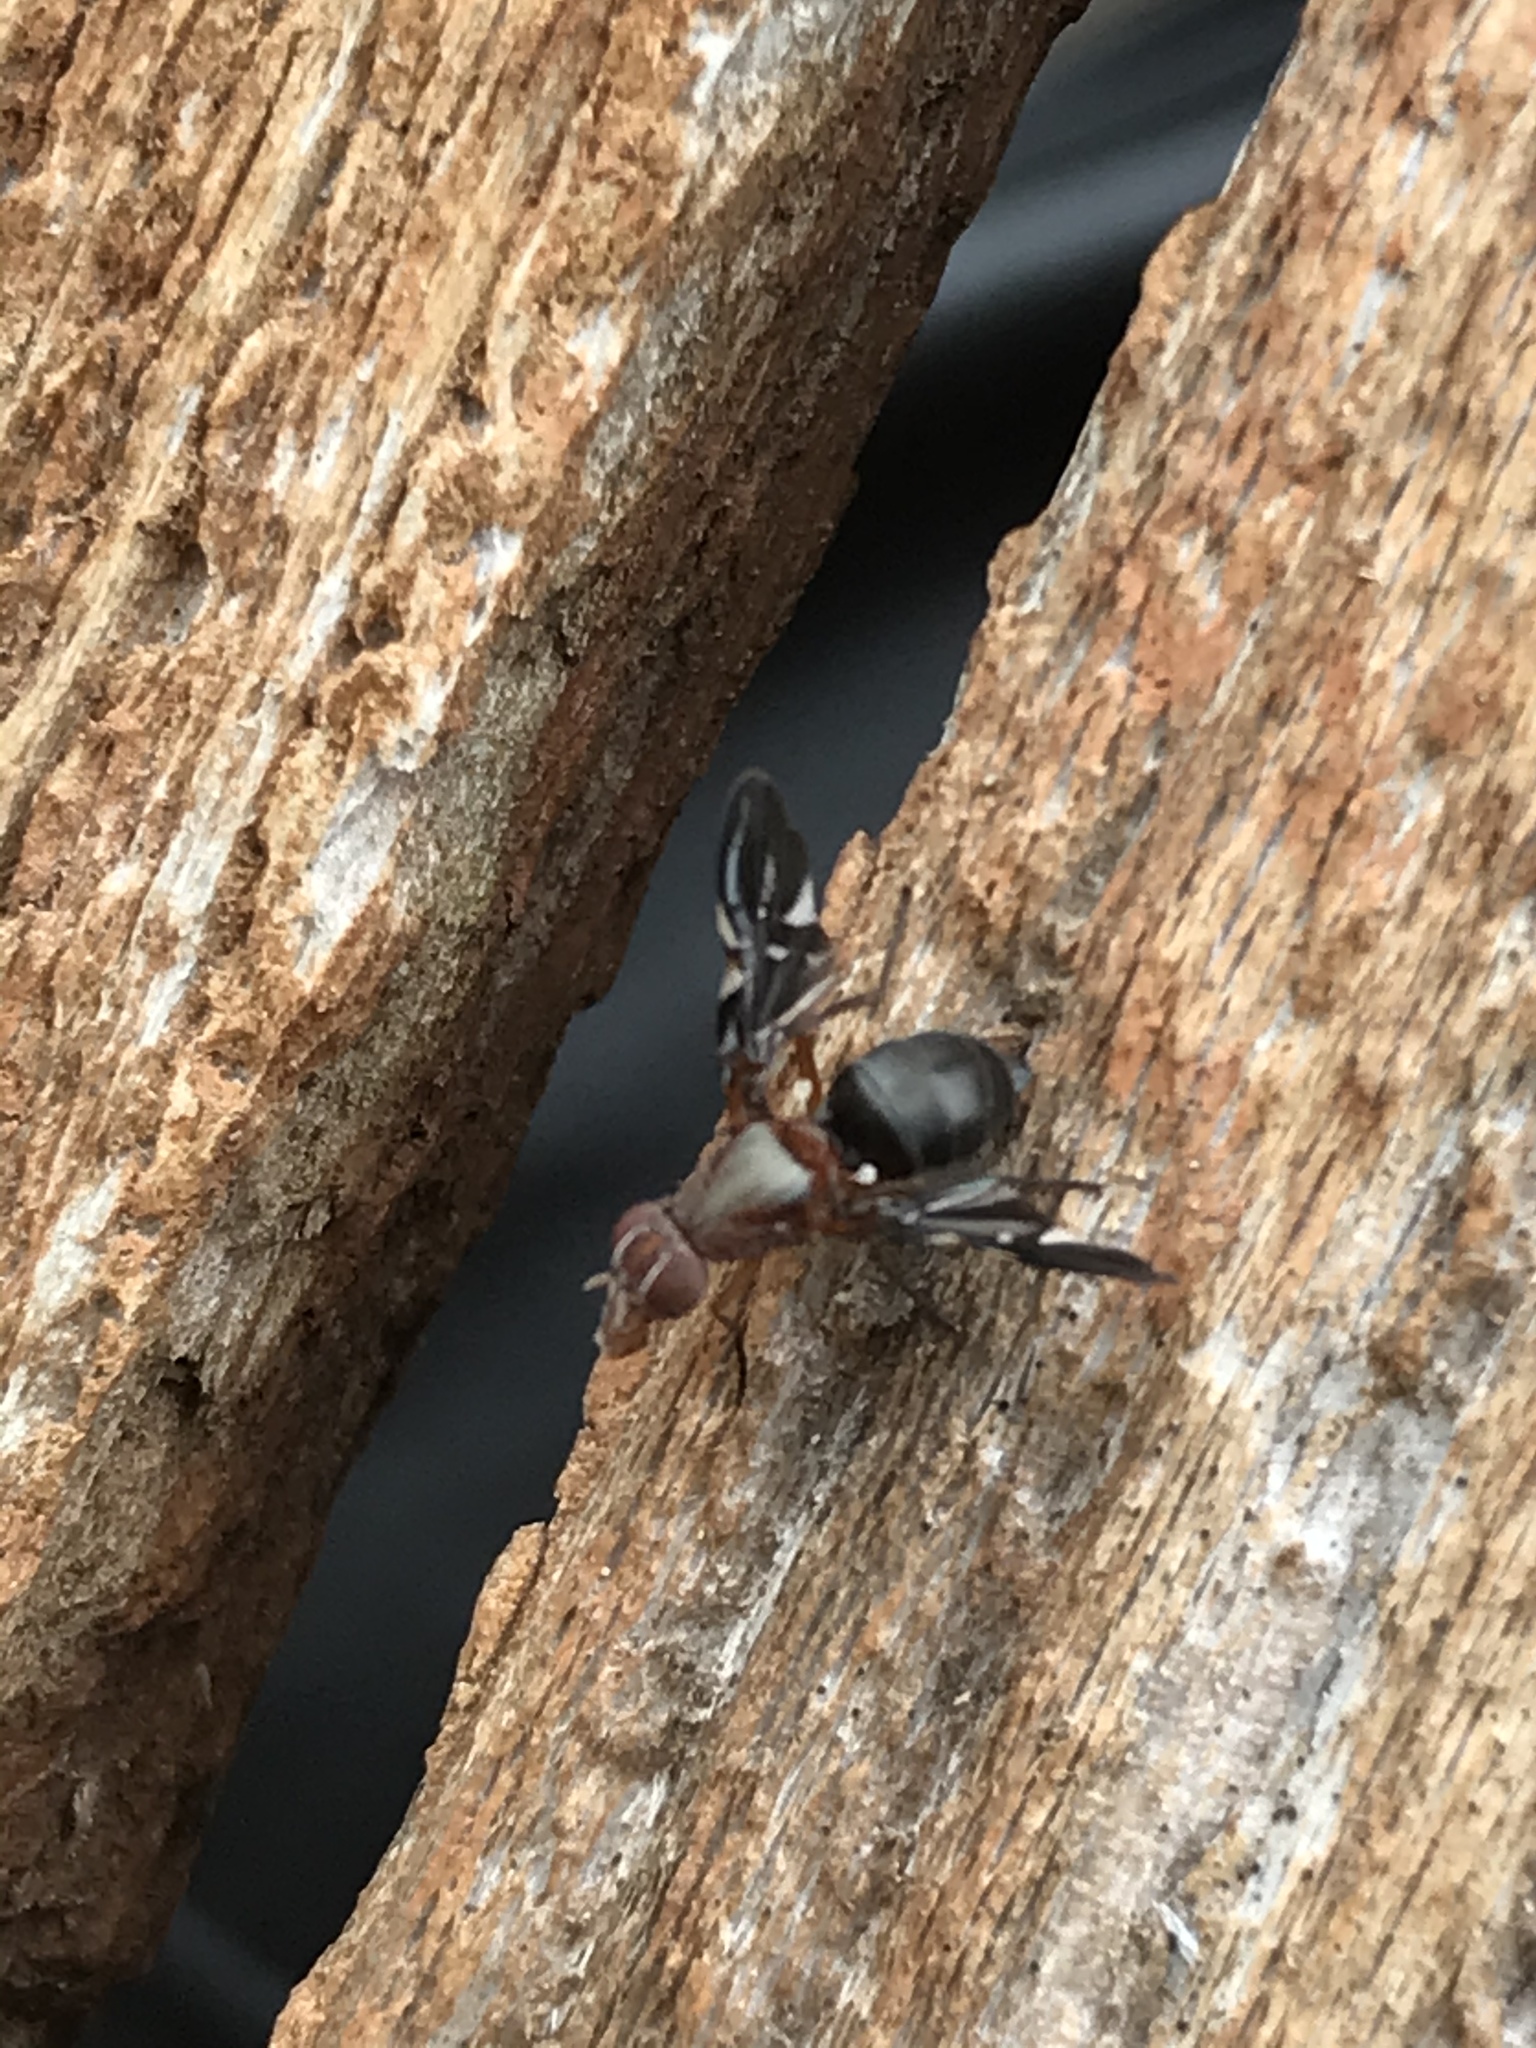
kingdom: Animalia
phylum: Arthropoda
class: Insecta
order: Diptera
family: Ulidiidae
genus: Delphinia
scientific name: Delphinia picta
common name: Common picture-winged fly
